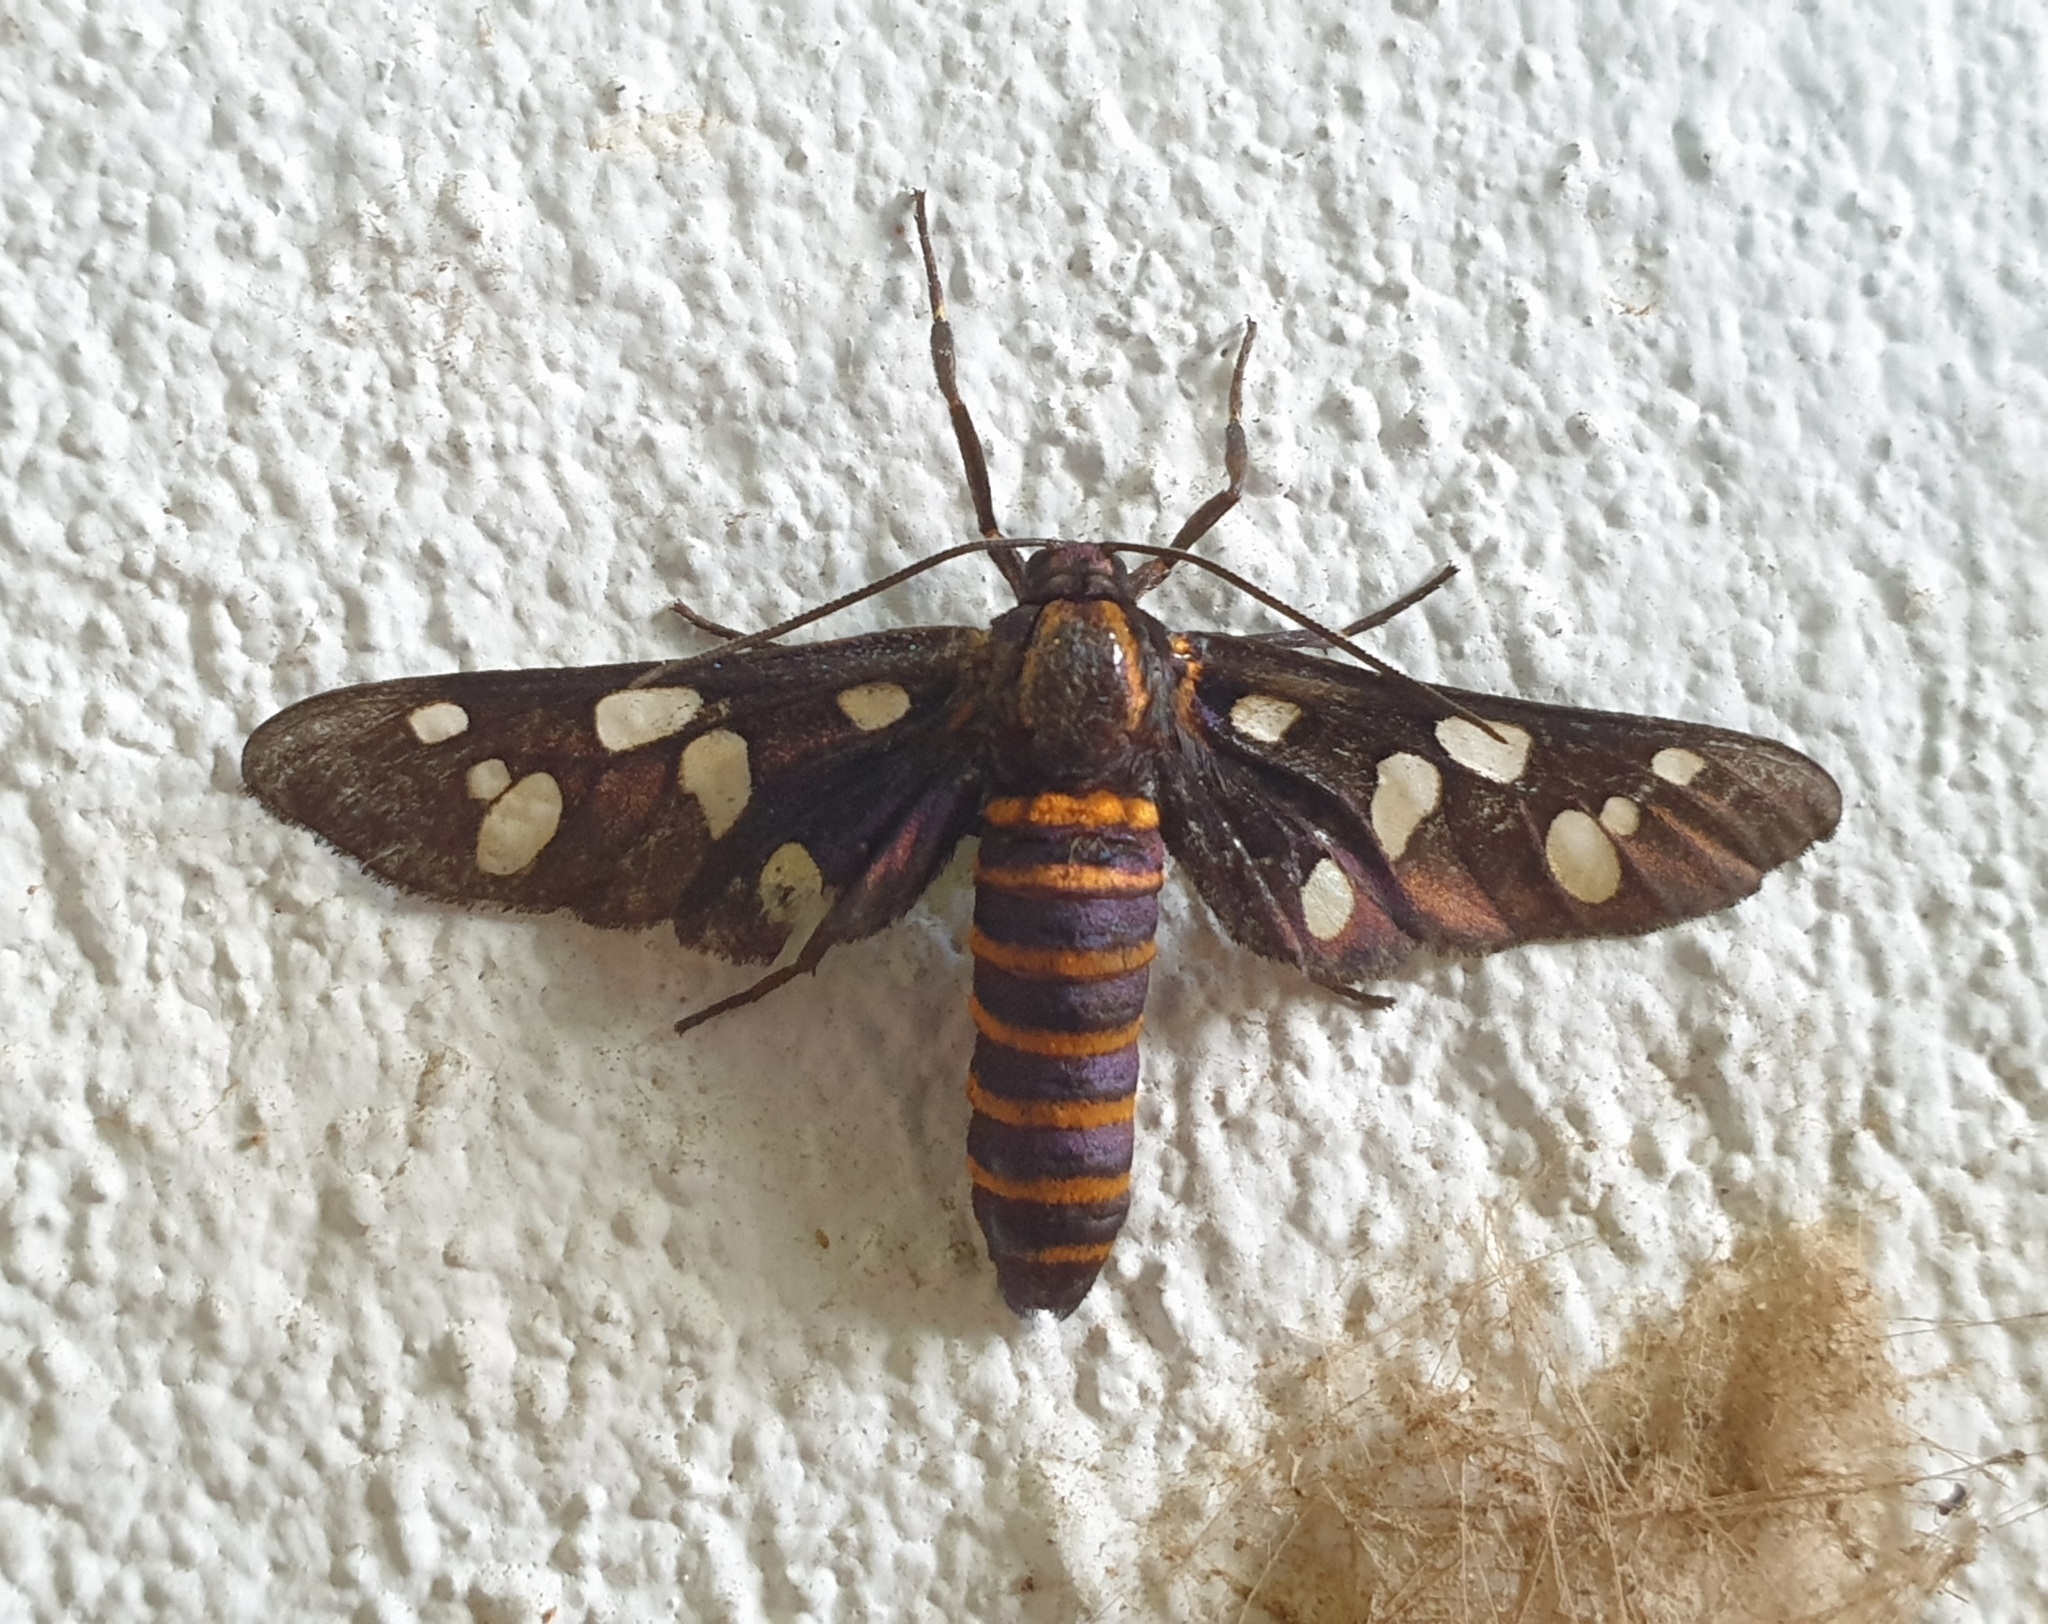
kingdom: Animalia
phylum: Arthropoda
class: Insecta
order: Lepidoptera
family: Erebidae
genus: Amata
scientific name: Amata passalis
